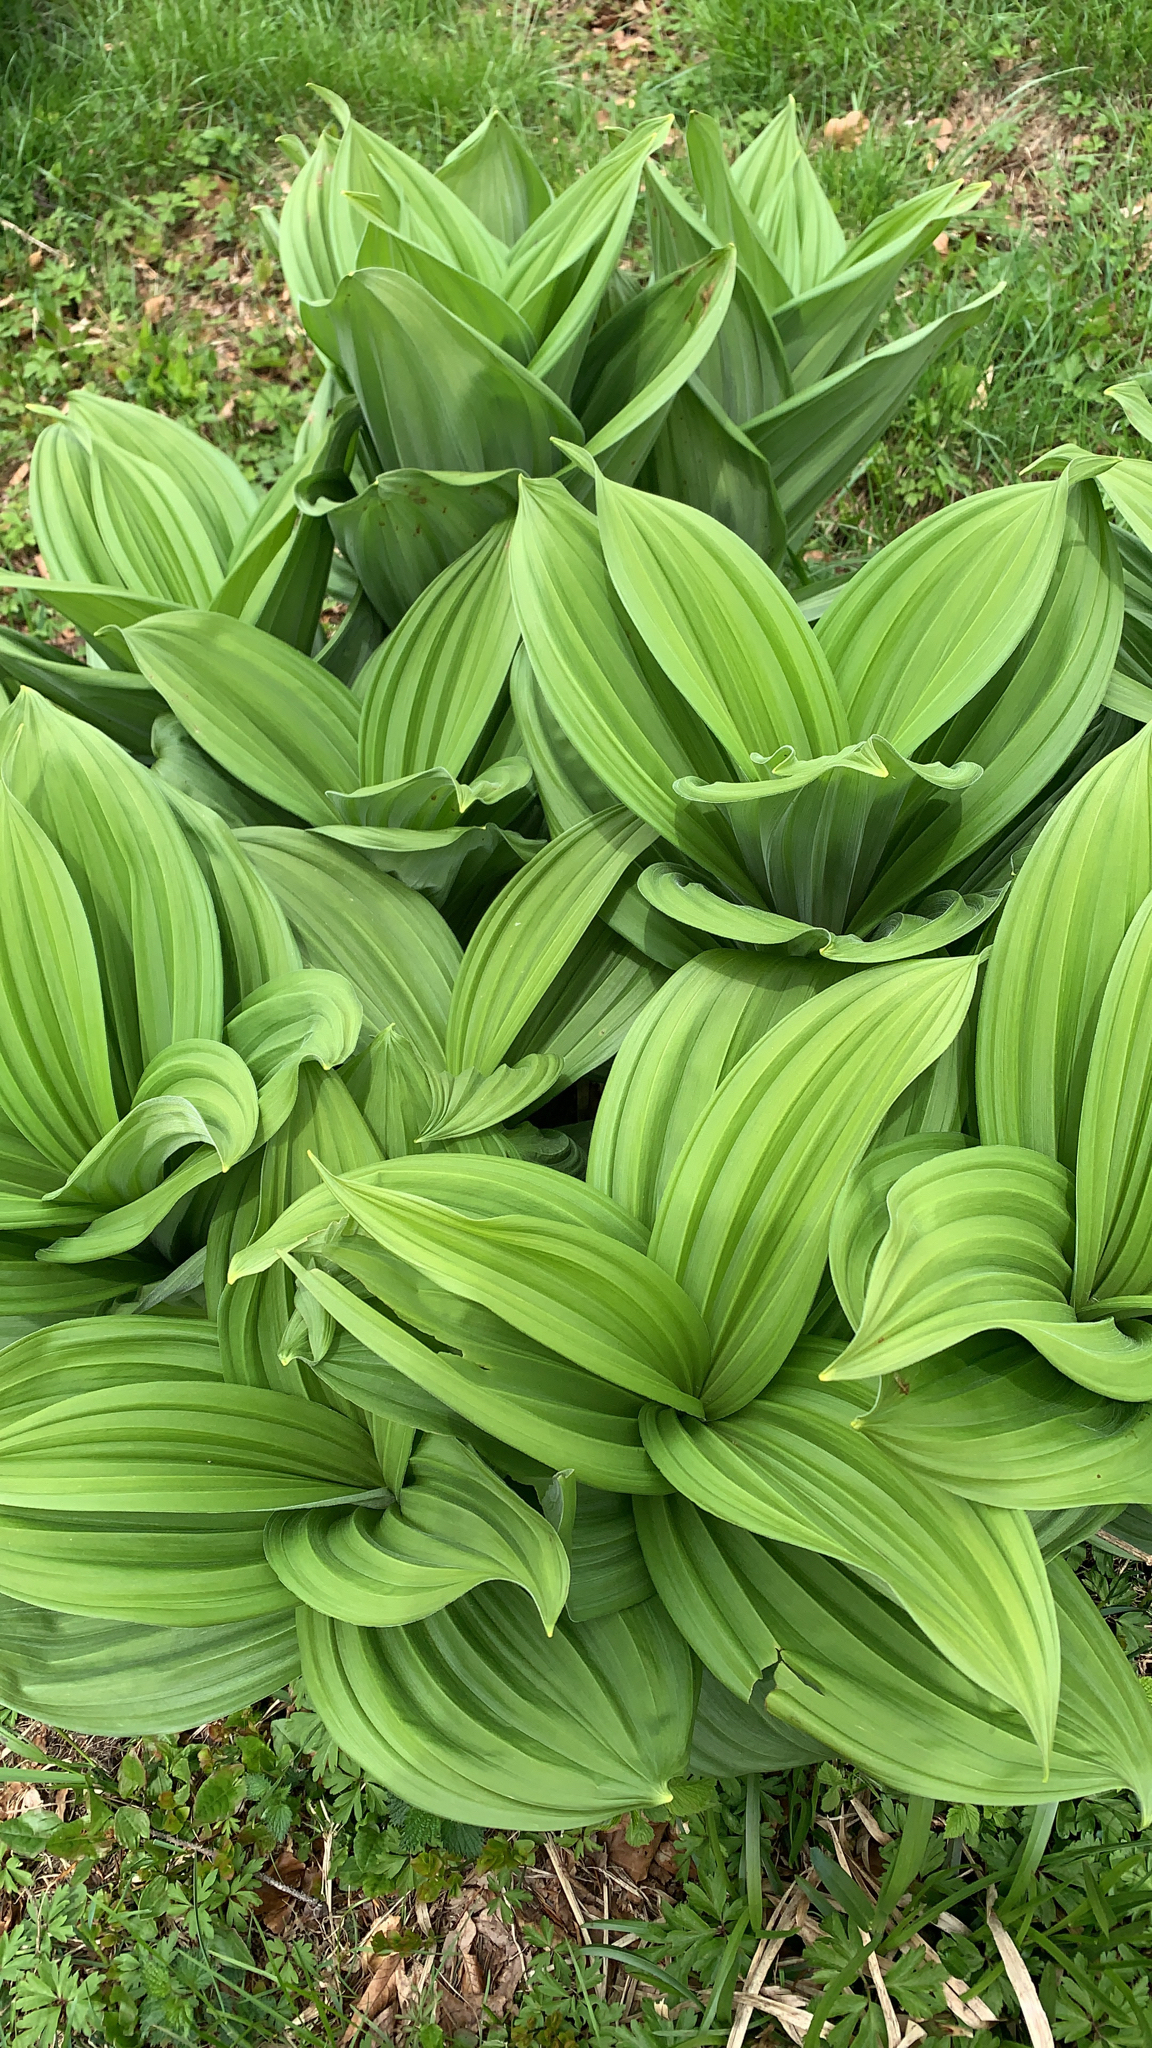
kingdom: Plantae
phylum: Tracheophyta
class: Liliopsida
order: Liliales
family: Melanthiaceae
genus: Veratrum
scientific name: Veratrum lobelianum
